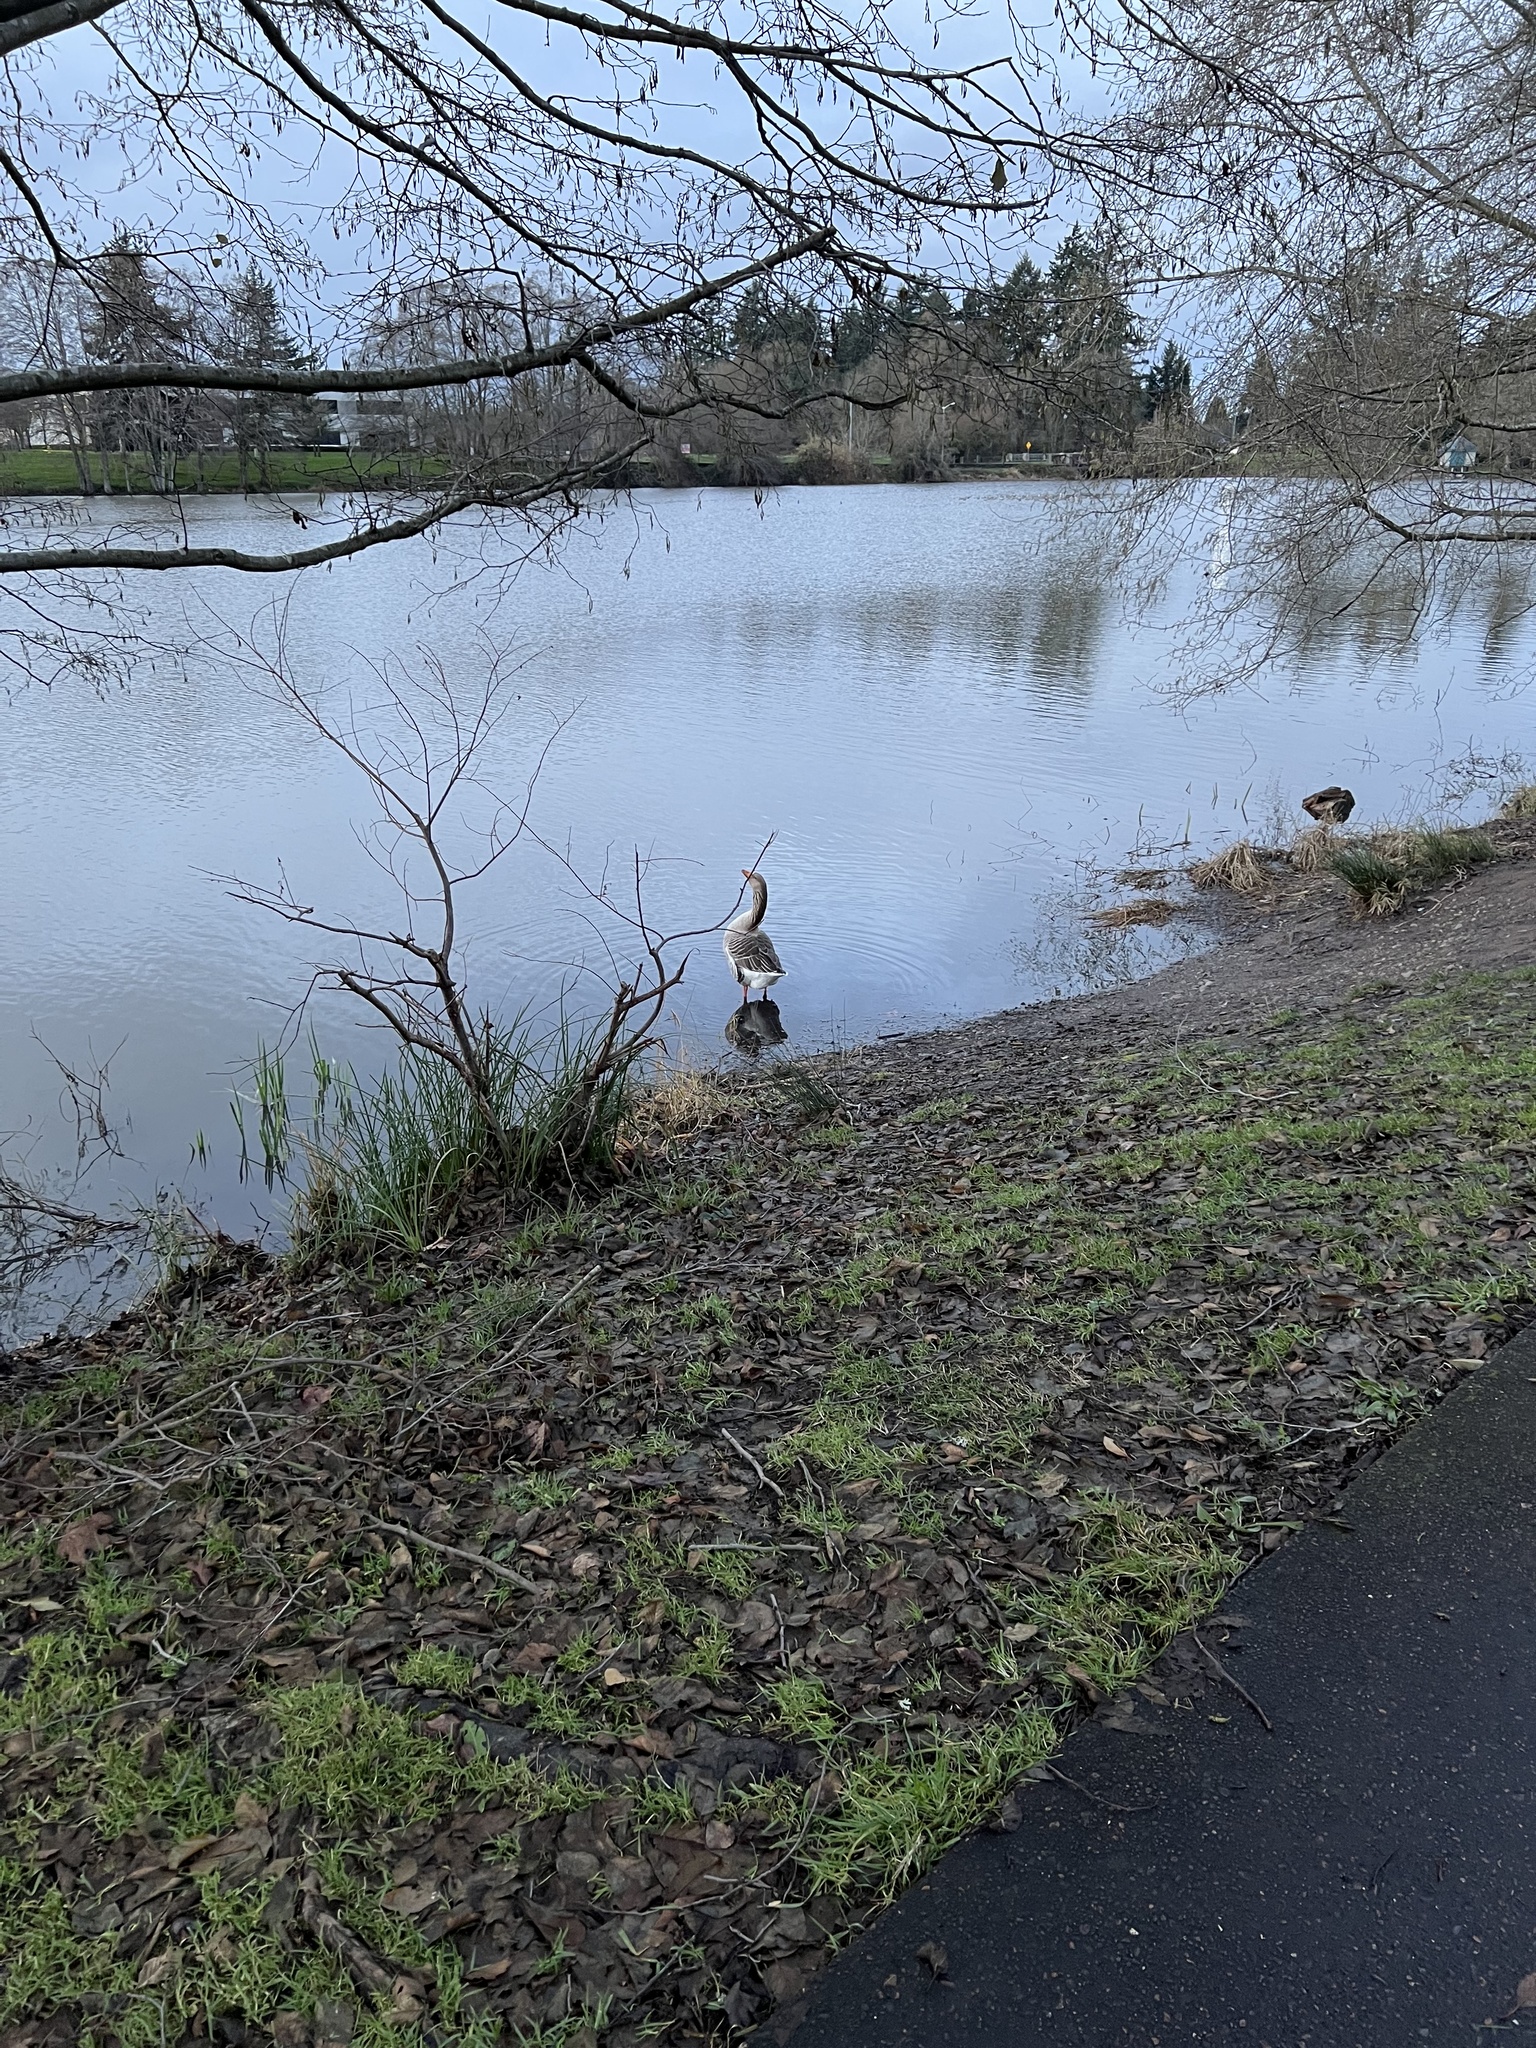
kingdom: Animalia
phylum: Chordata
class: Aves
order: Anseriformes
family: Anatidae
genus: Anser
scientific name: Anser
